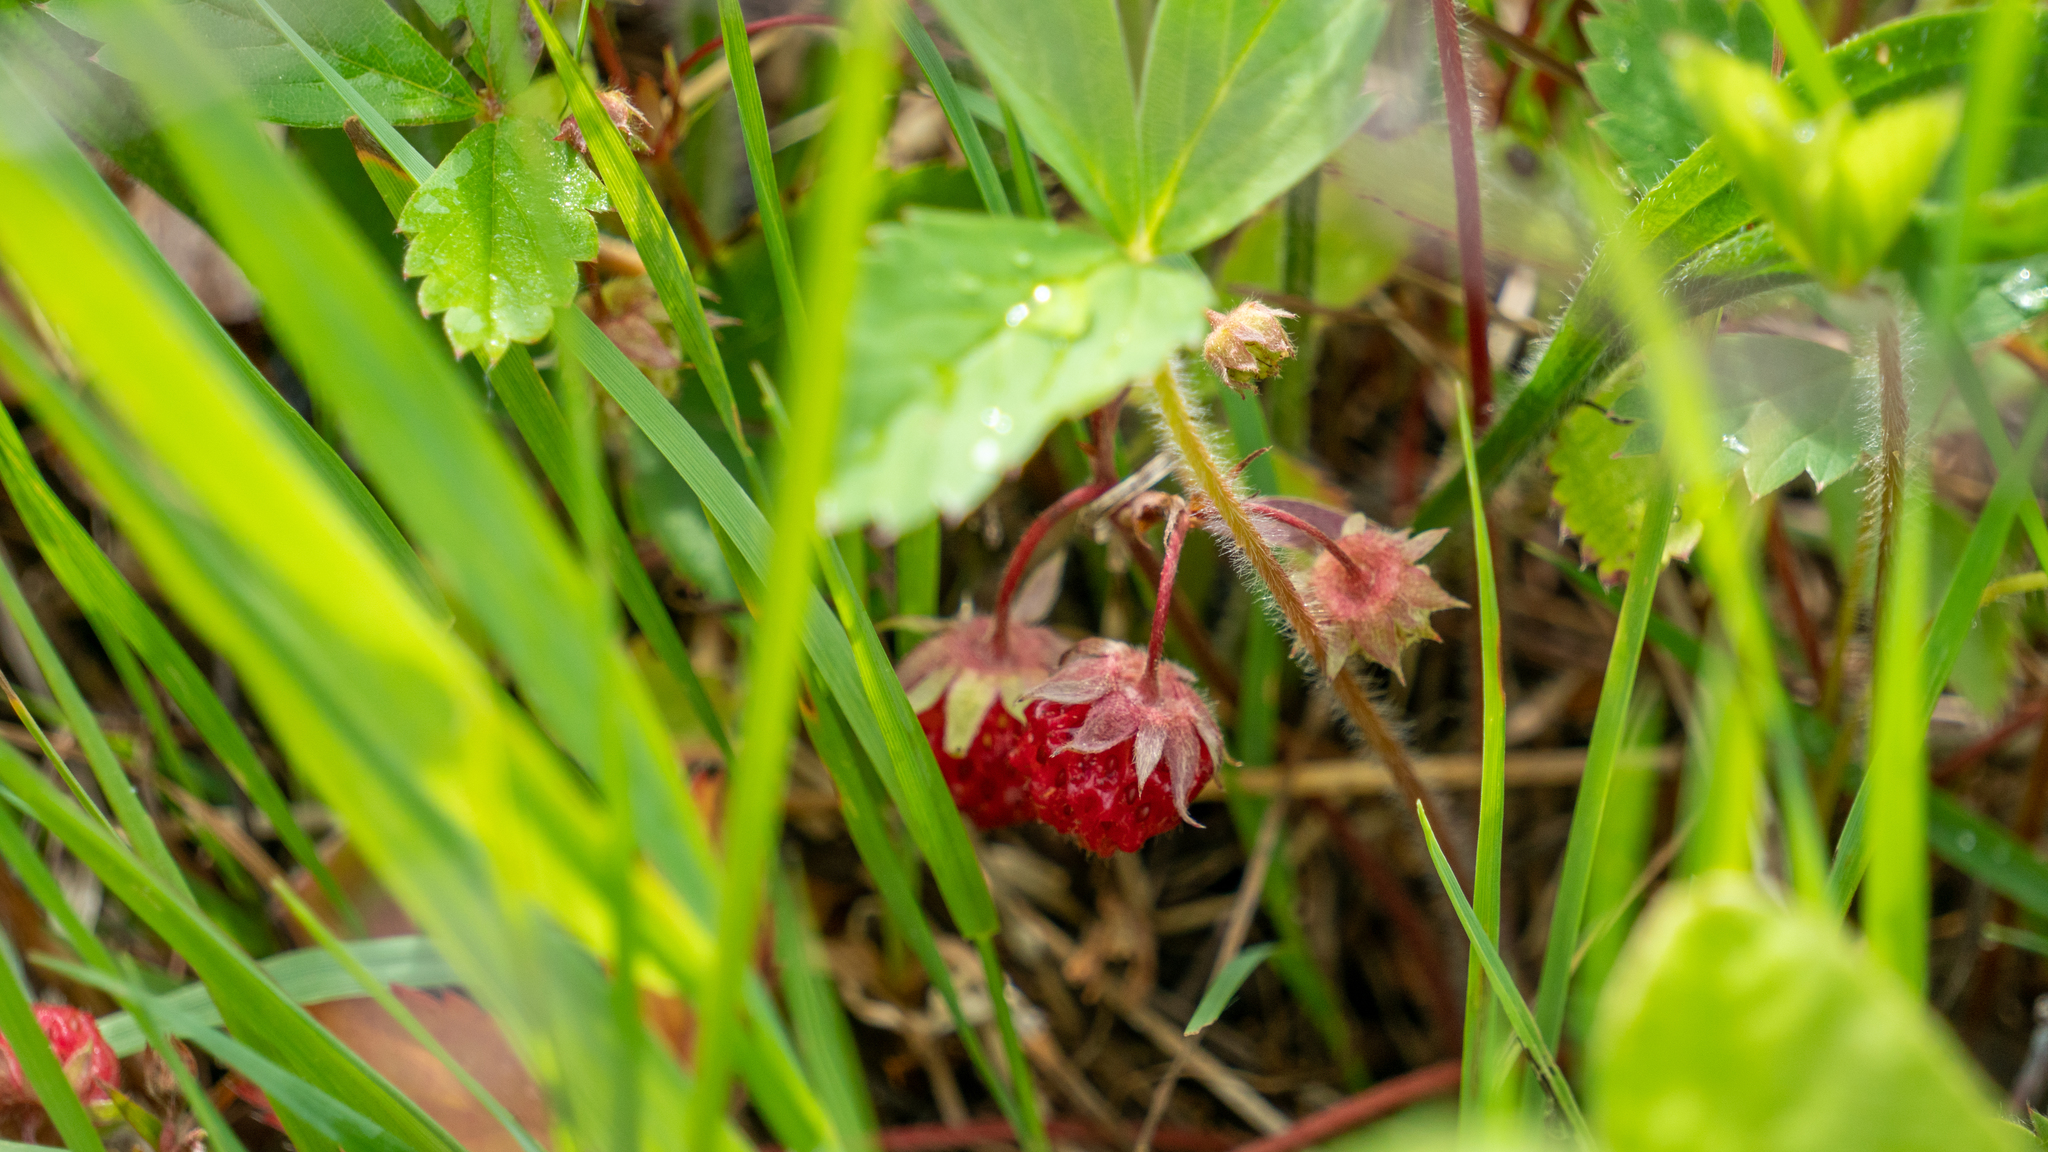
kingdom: Plantae
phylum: Tracheophyta
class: Magnoliopsida
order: Rosales
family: Rosaceae
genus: Fragaria
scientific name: Fragaria virginiana
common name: Thickleaved wild strawberry
